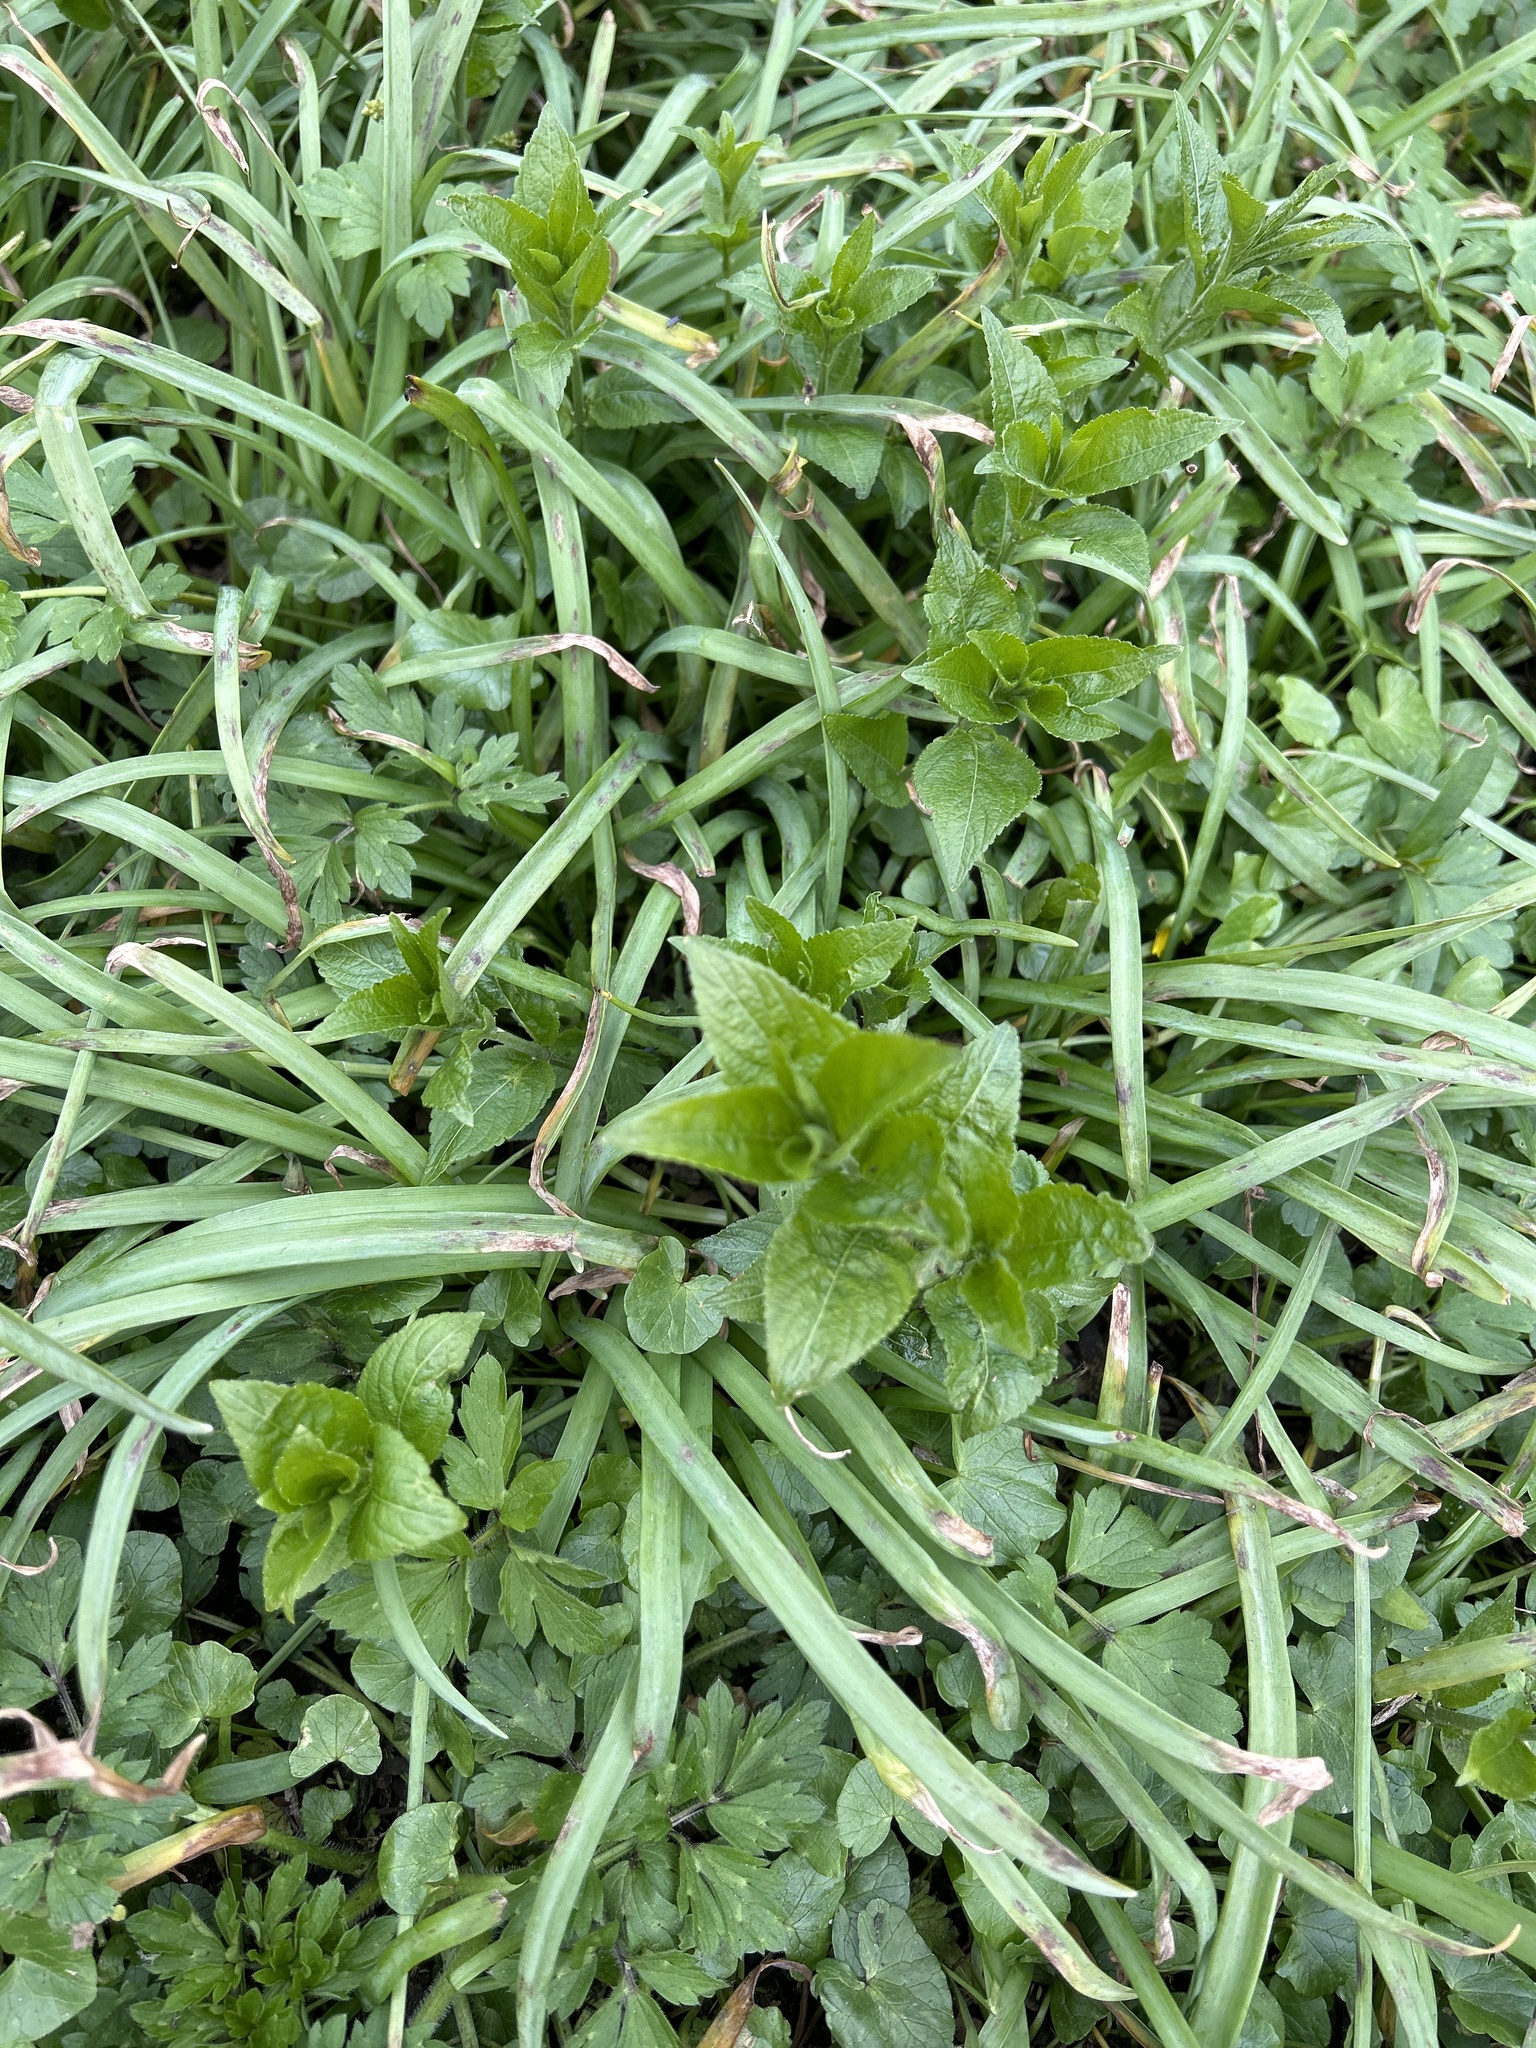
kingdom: Plantae
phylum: Tracheophyta
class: Magnoliopsida
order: Malpighiales
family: Euphorbiaceae
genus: Mercurialis
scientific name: Mercurialis perennis
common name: Dog mercury
